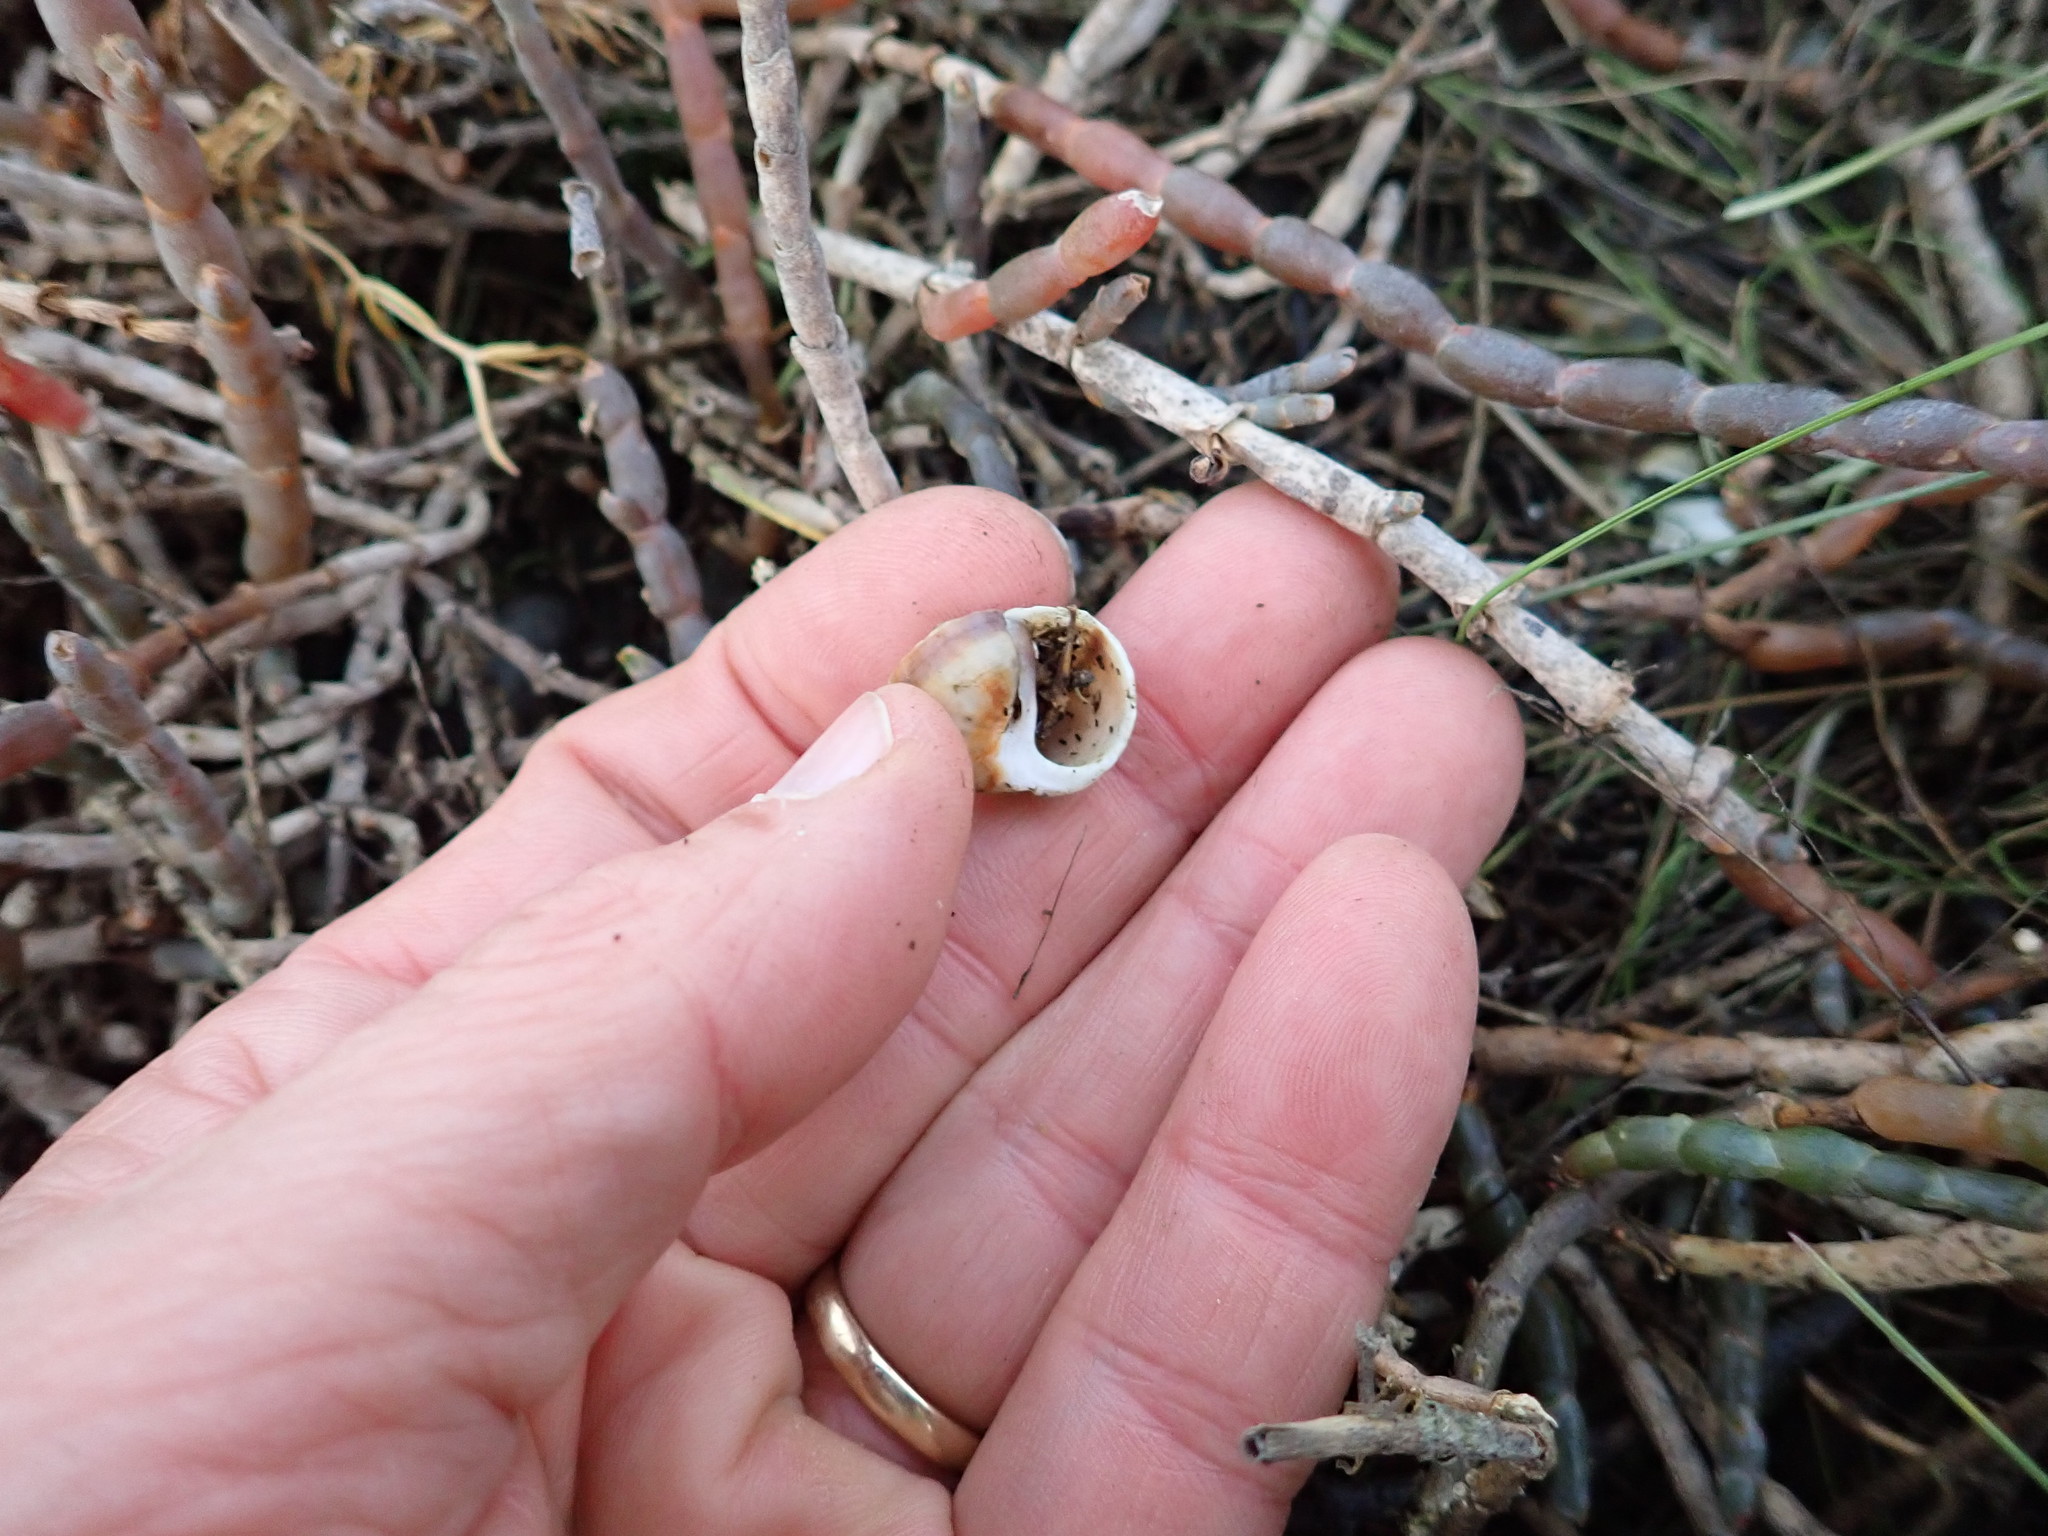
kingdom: Animalia
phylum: Mollusca
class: Gastropoda
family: Amphibolidae
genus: Amphibola
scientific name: Amphibola crenata
